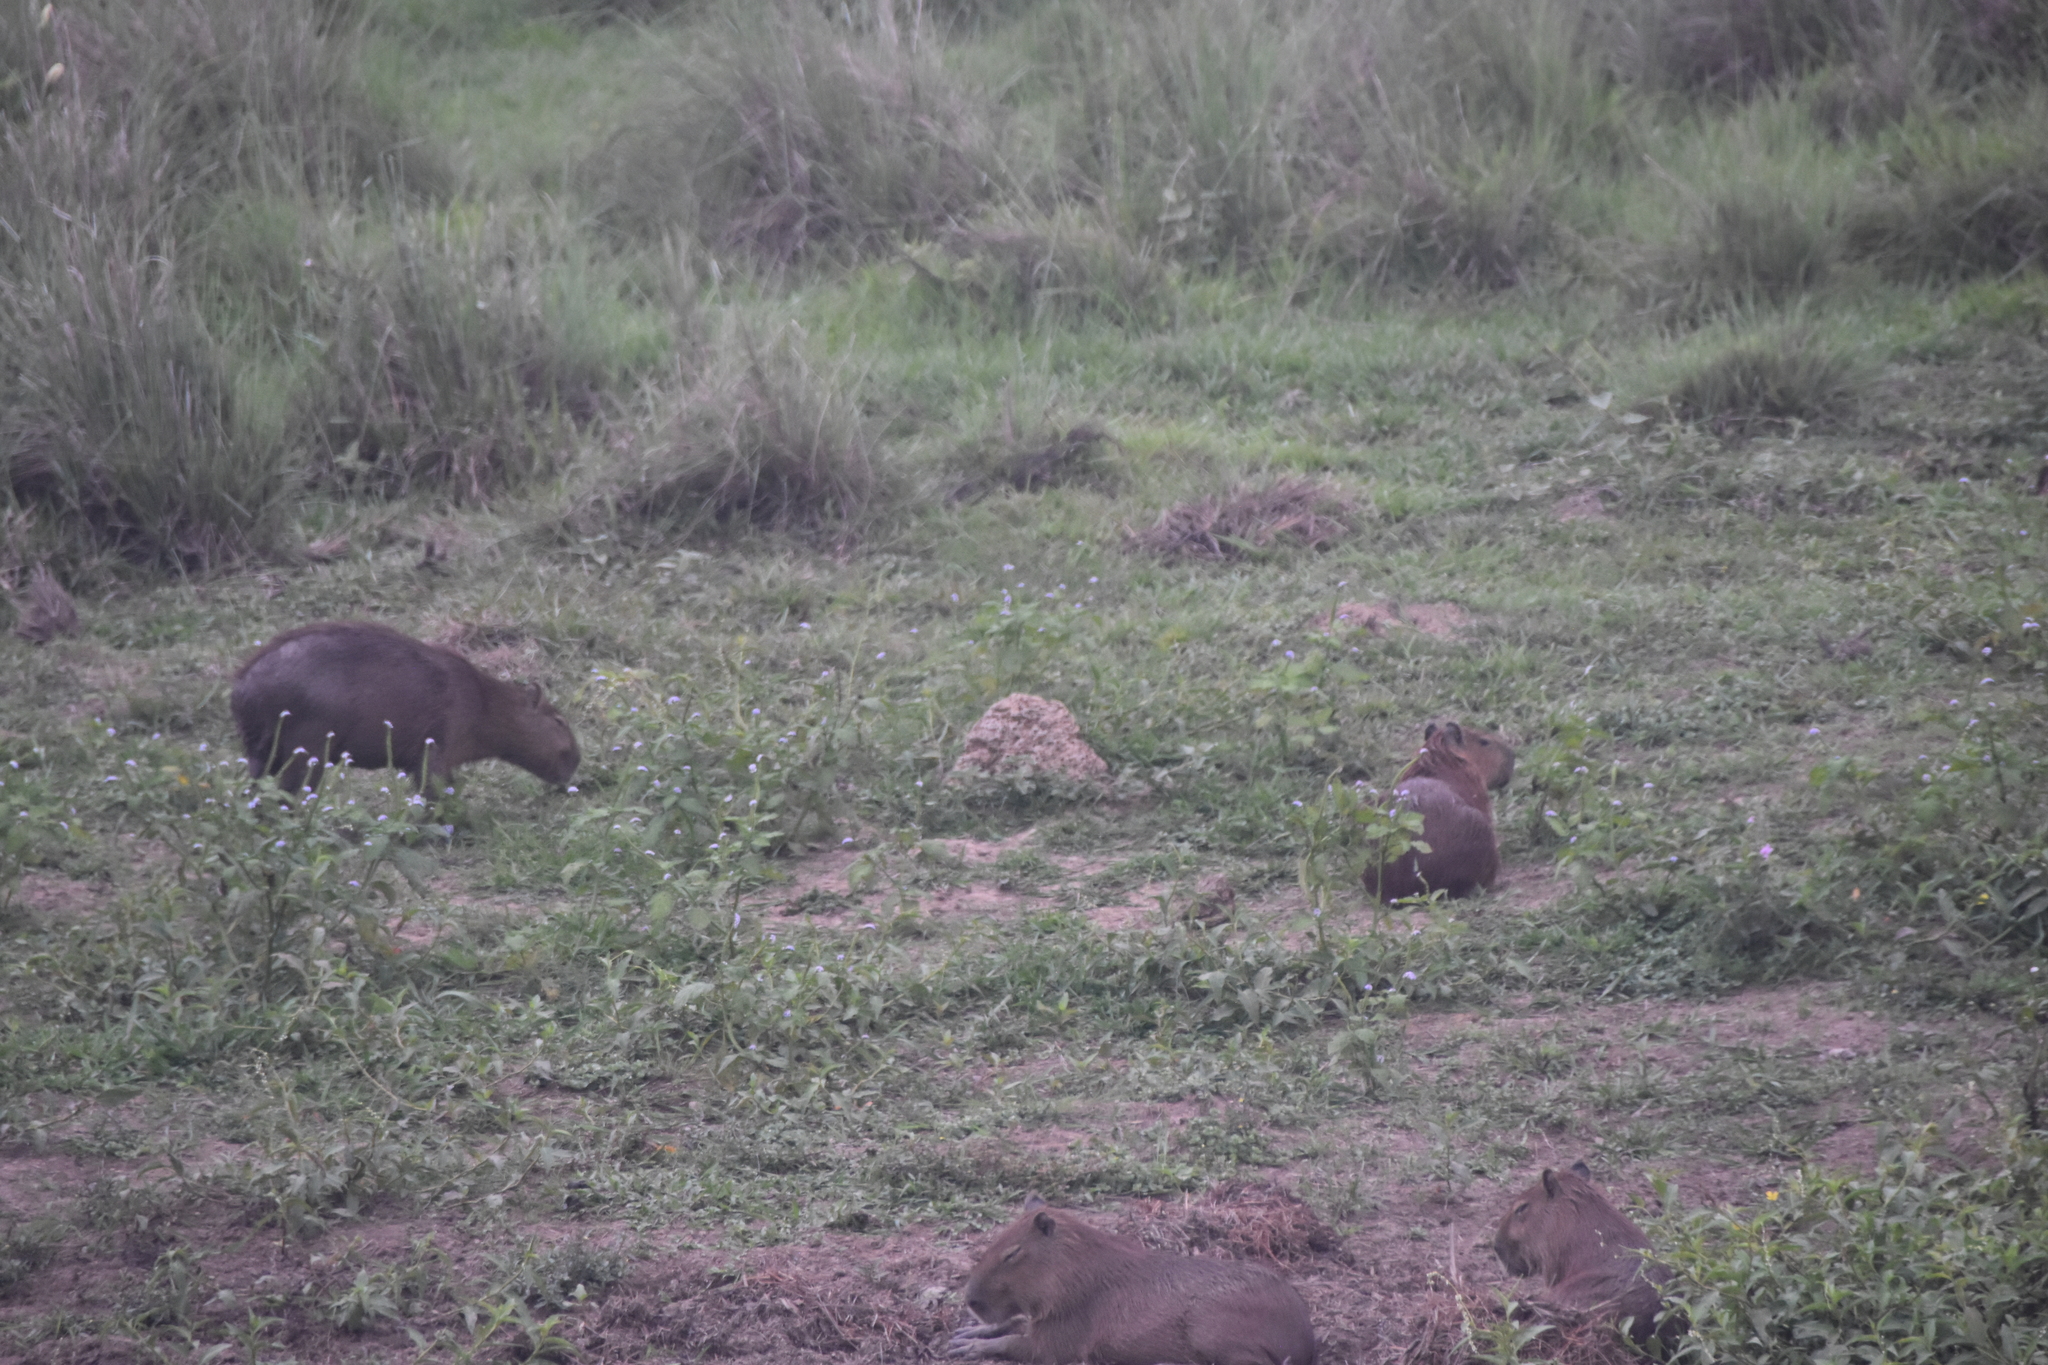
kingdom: Animalia
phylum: Chordata
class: Mammalia
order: Rodentia
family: Caviidae
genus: Hydrochoerus
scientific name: Hydrochoerus hydrochaeris
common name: Capybara
